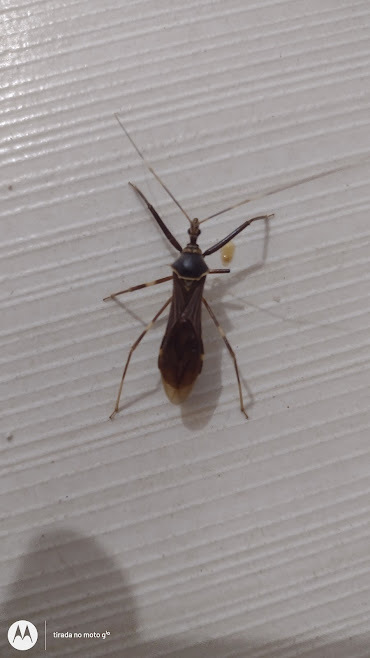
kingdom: Animalia
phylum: Arthropoda
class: Insecta
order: Hemiptera
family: Reduviidae
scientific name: Reduviidae
